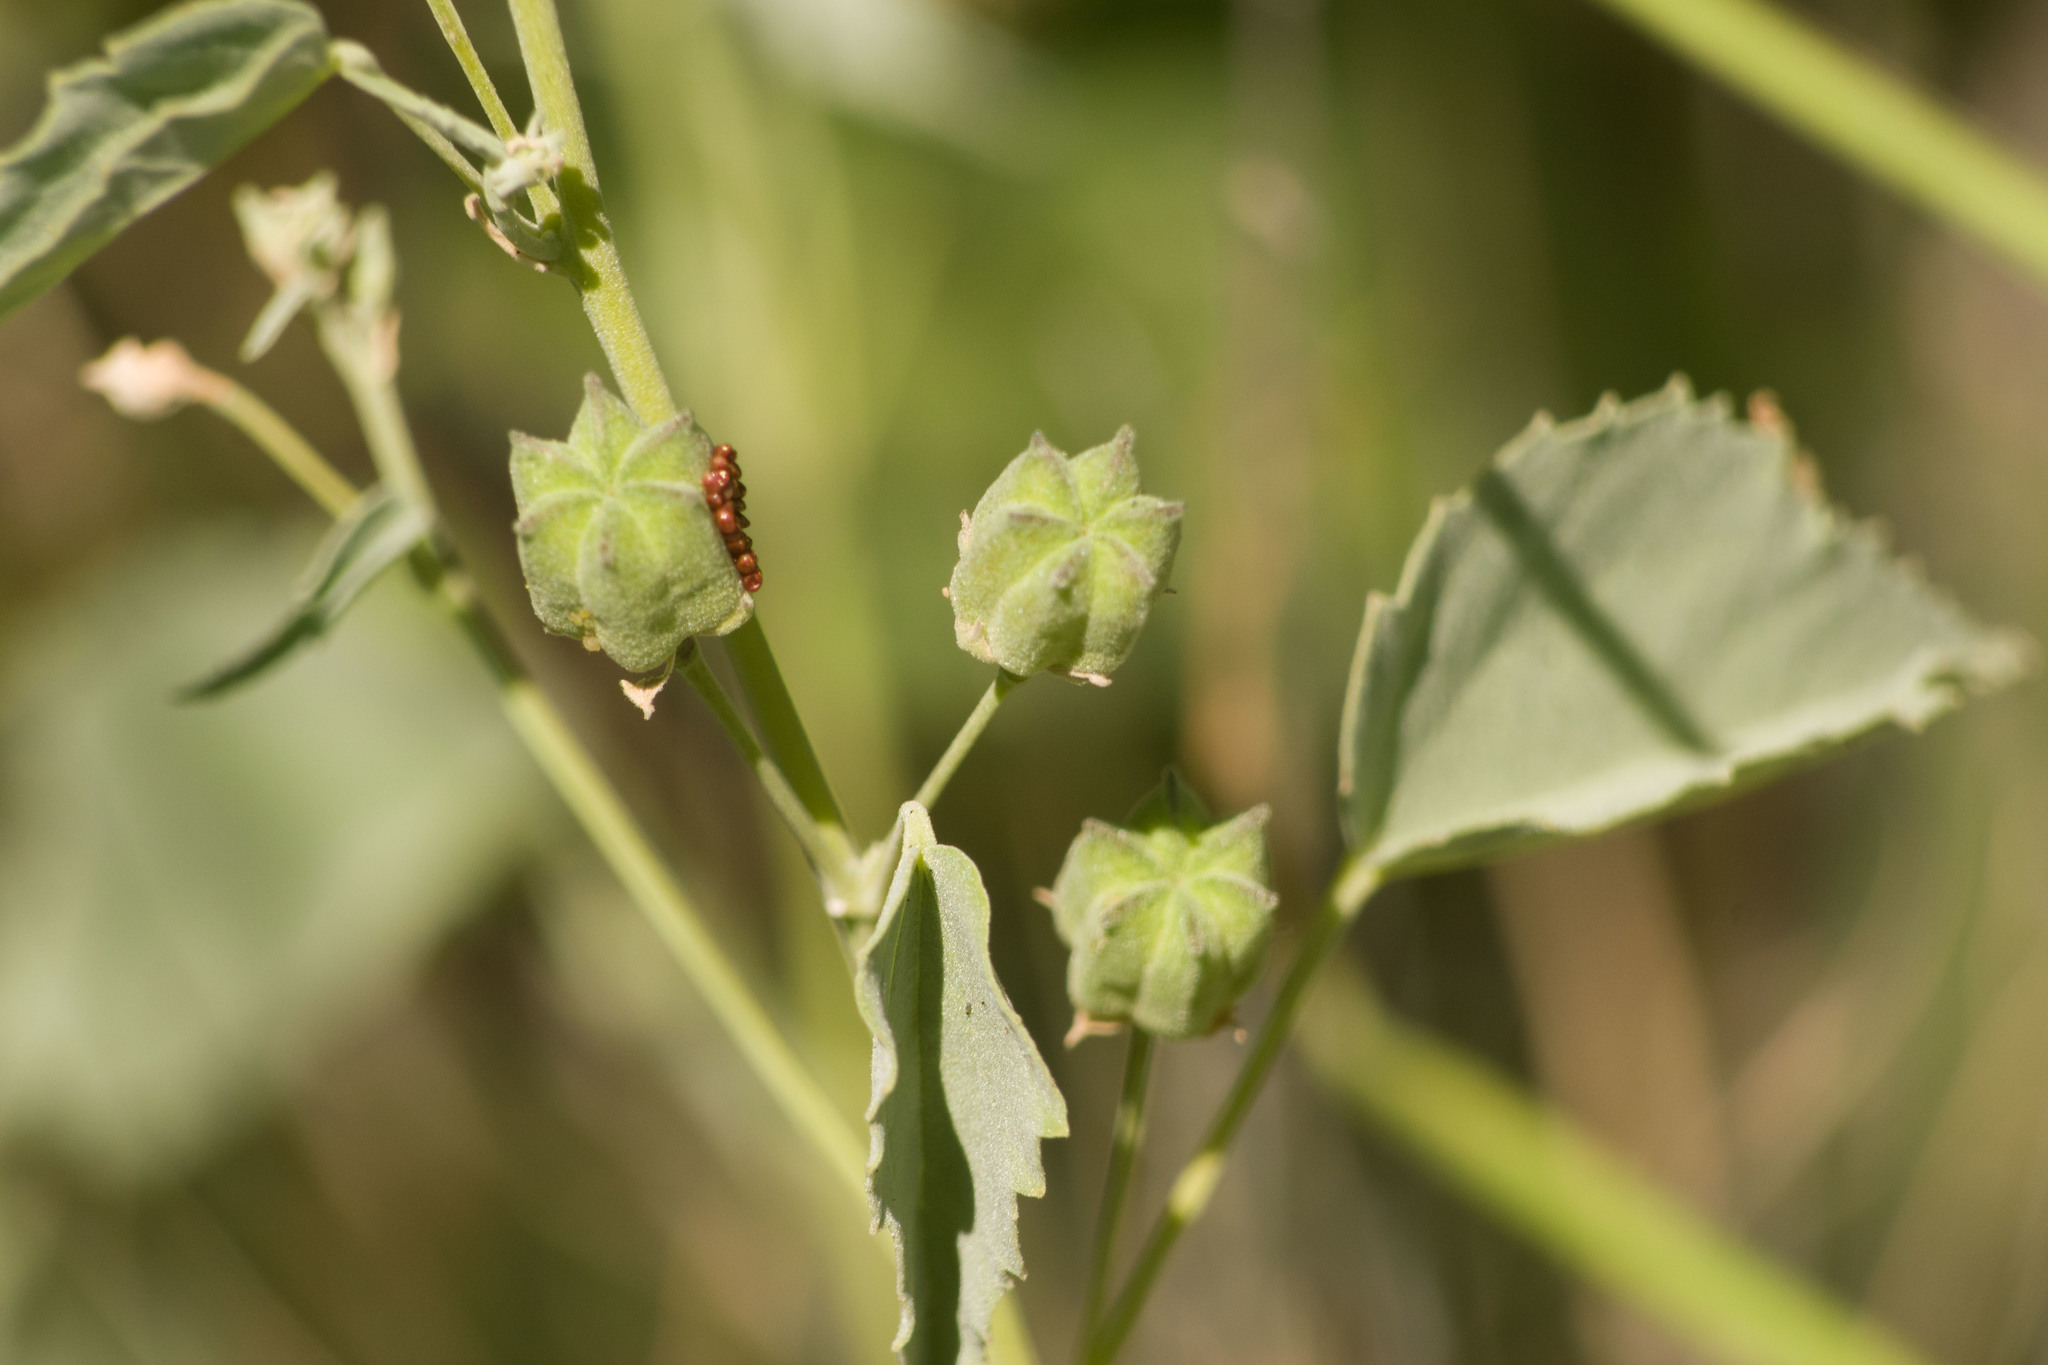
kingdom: Plantae
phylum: Tracheophyta
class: Magnoliopsida
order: Malvales
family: Malvaceae
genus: Abutilon
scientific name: Abutilon incanum
